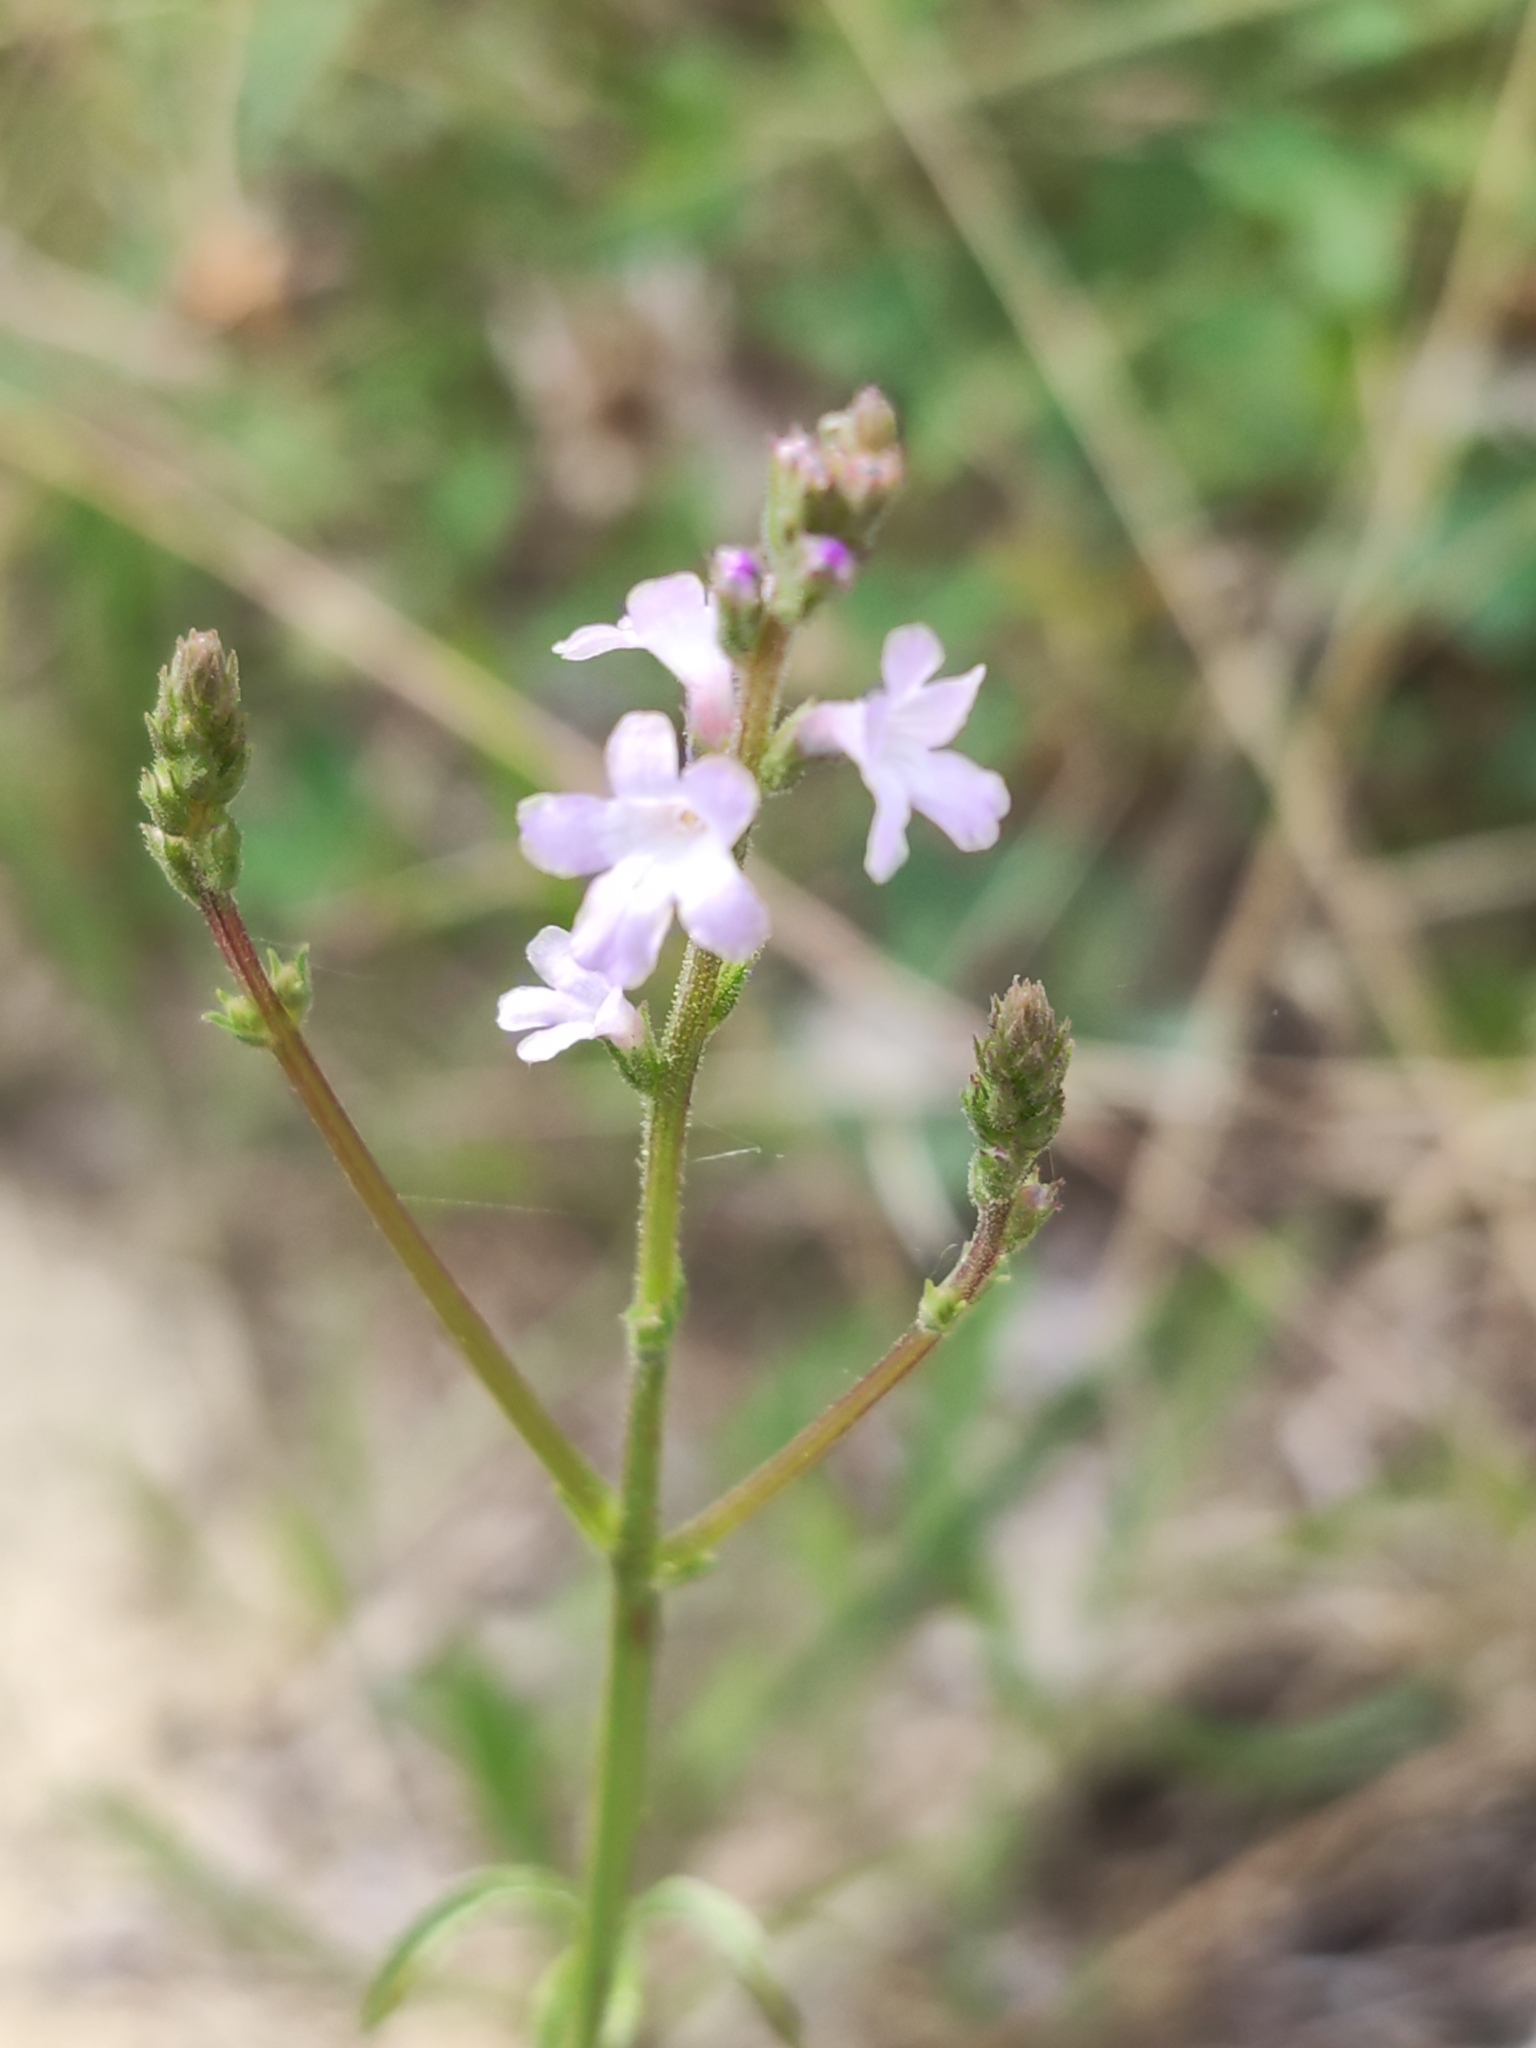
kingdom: Plantae
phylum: Tracheophyta
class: Magnoliopsida
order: Lamiales
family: Verbenaceae
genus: Verbena
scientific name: Verbena officinalis
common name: Vervain
